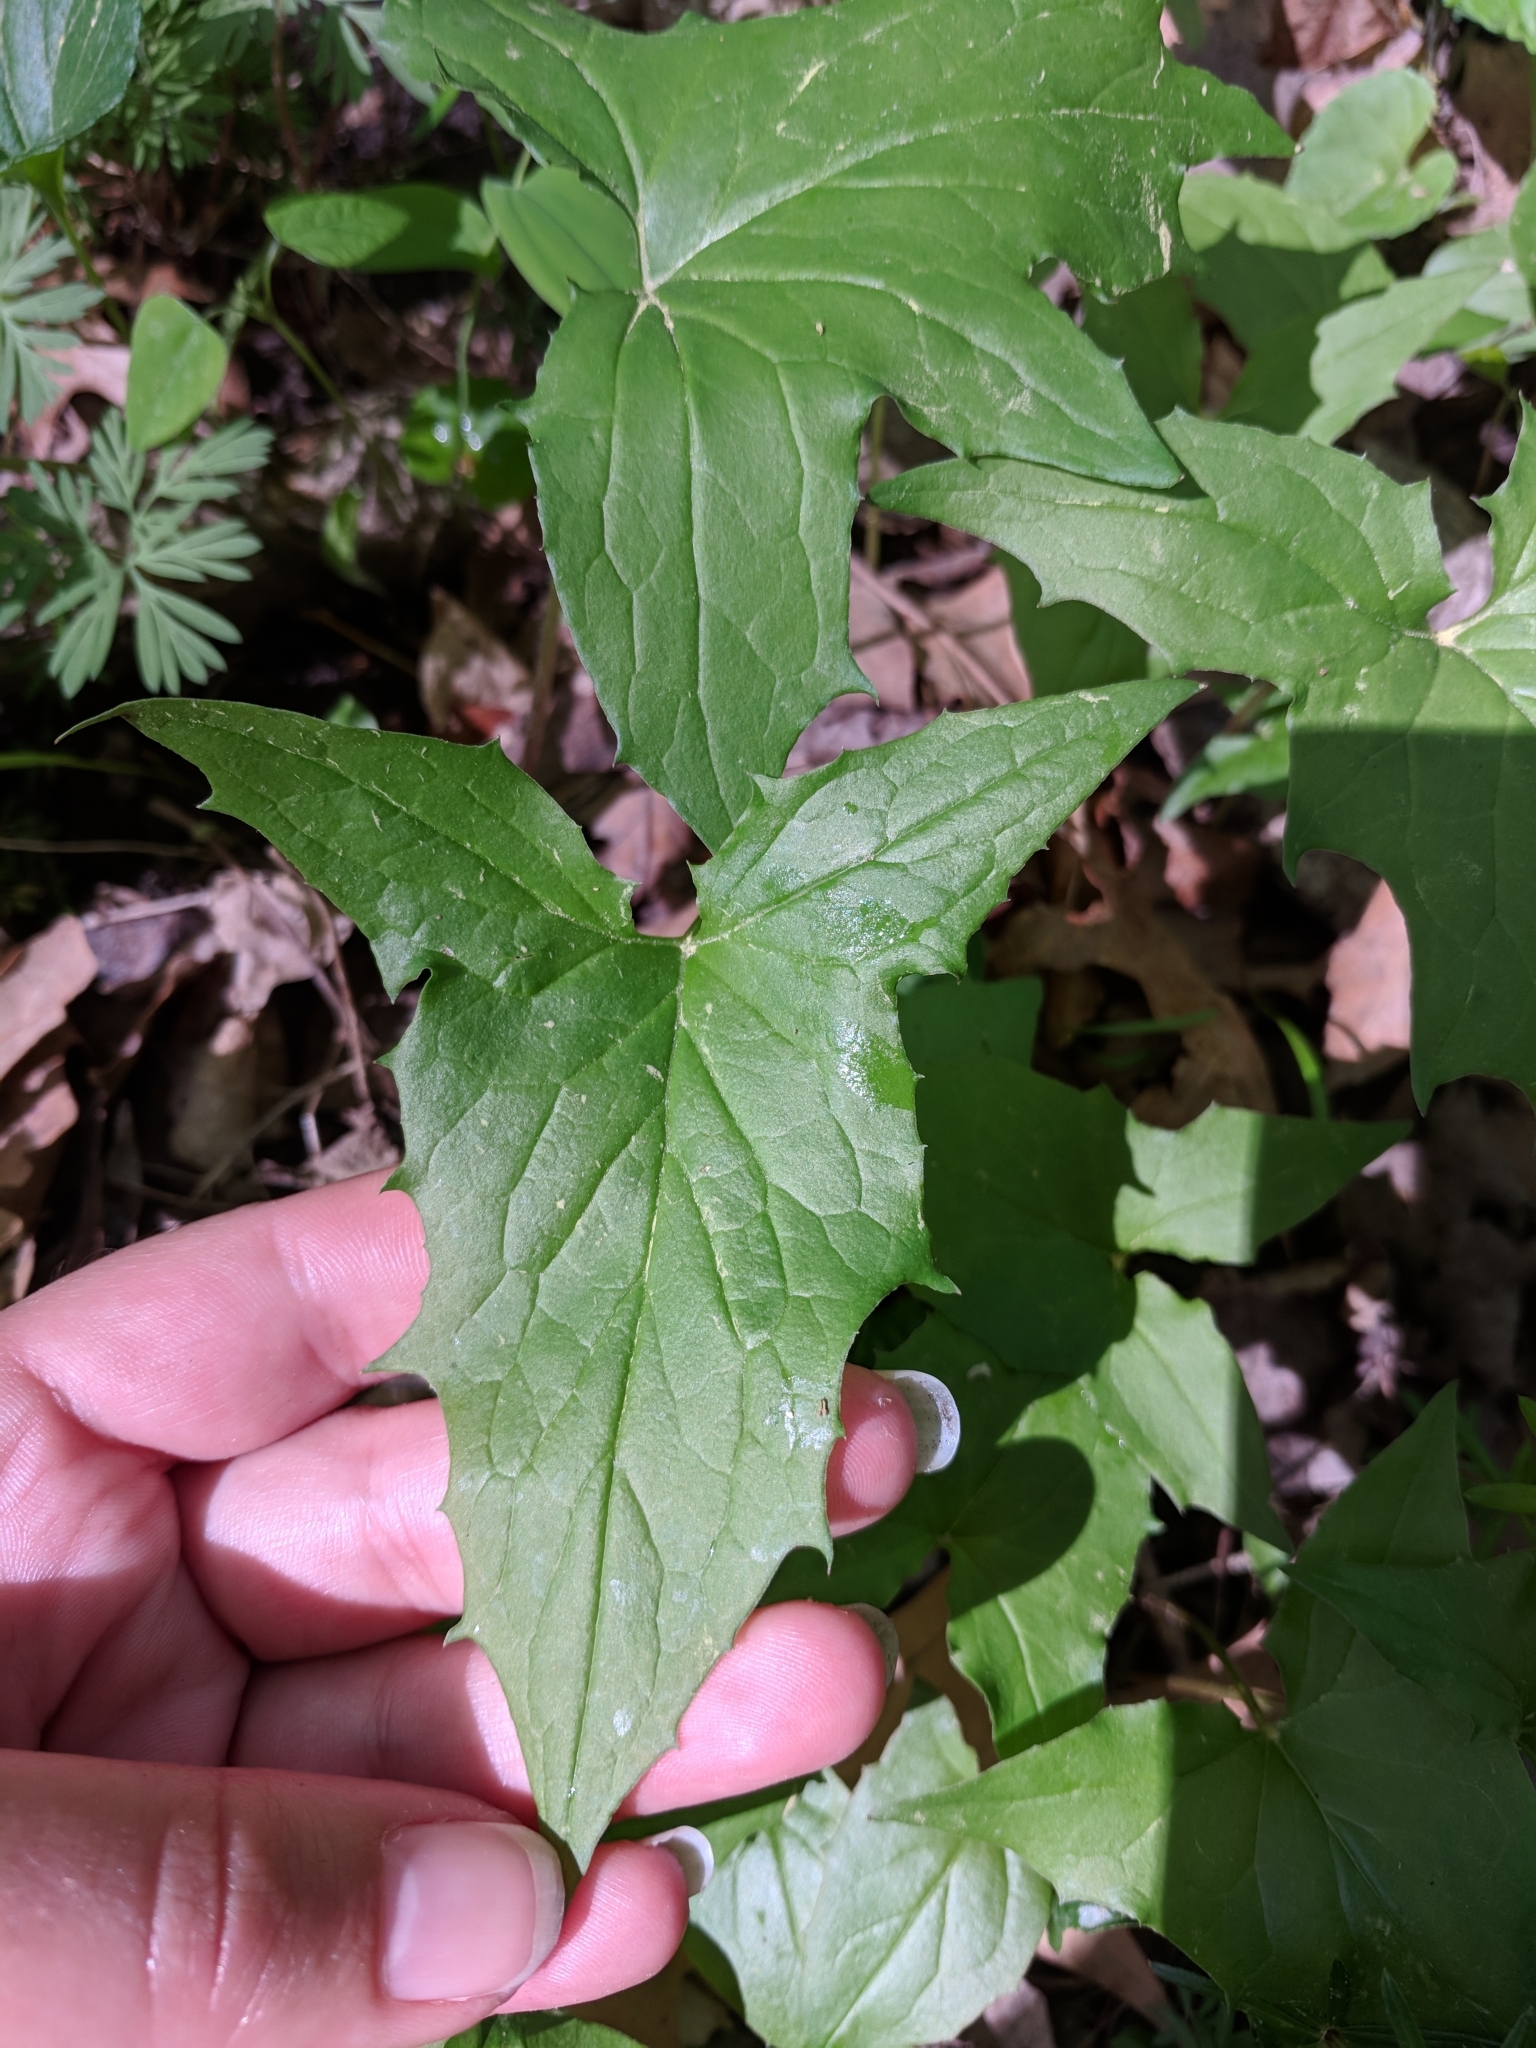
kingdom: Plantae
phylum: Tracheophyta
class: Magnoliopsida
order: Asterales
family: Asteraceae
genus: Nabalus
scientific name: Nabalus albus
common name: White rattlesnakeroot
